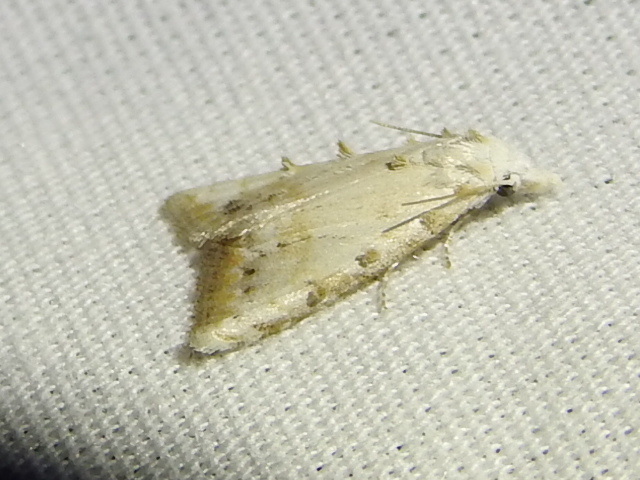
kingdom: Animalia
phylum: Arthropoda
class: Insecta
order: Lepidoptera
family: Nolidae
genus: Nola
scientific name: Nola cereella
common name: Sorghum webworm moth
